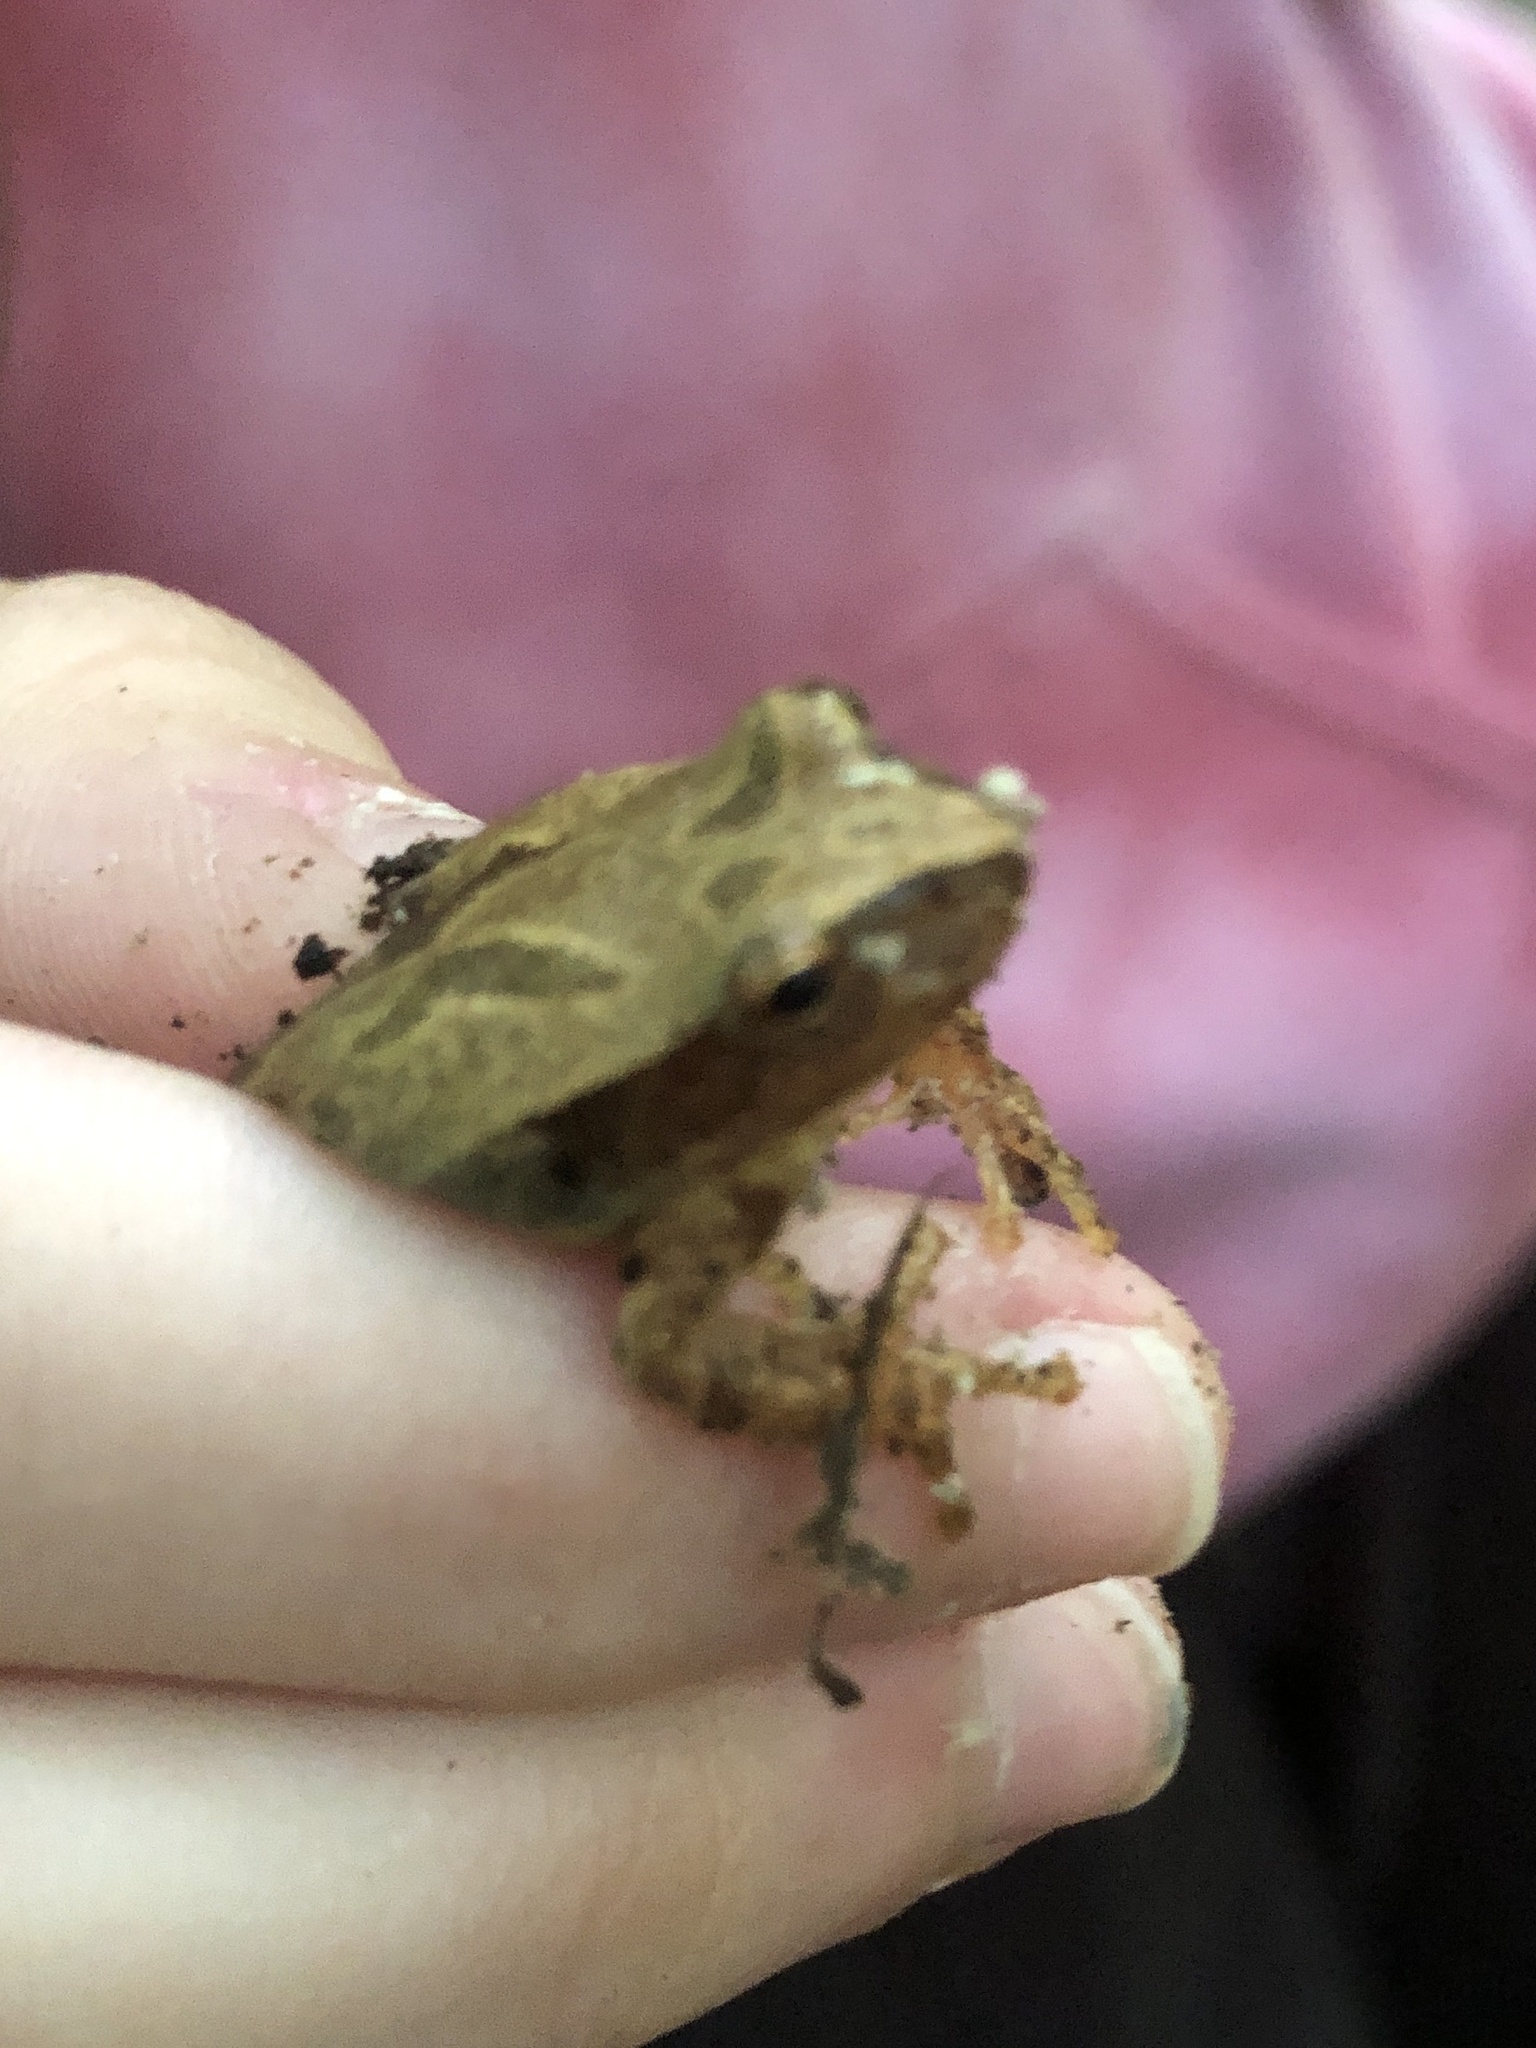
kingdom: Animalia
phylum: Chordata
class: Amphibia
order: Anura
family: Hylidae
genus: Pseudacris
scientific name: Pseudacris crucifer
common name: Spring peeper
